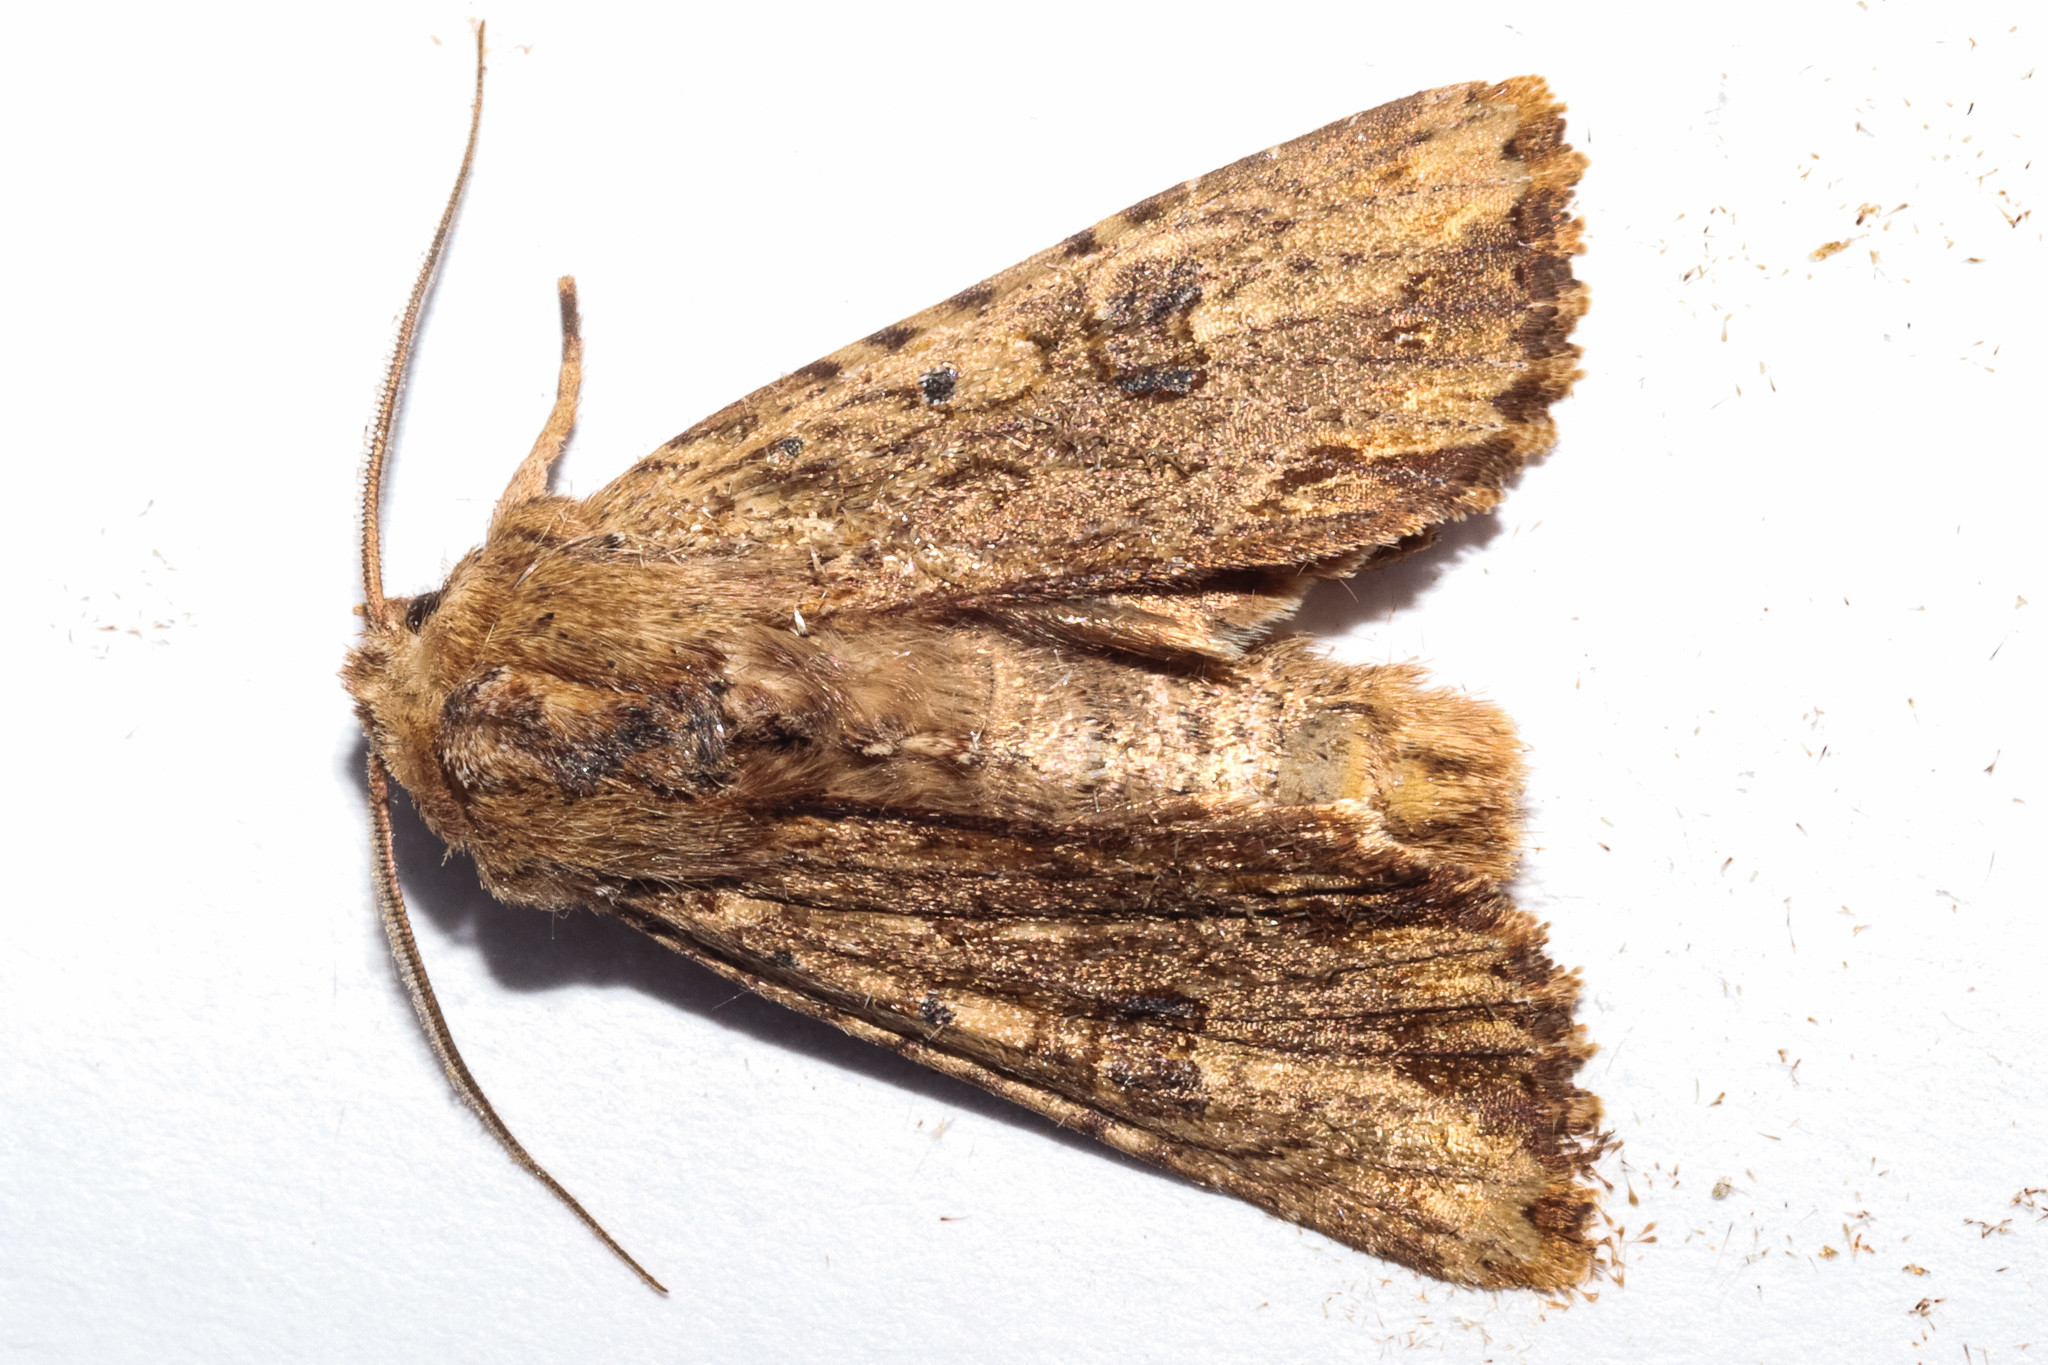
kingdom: Animalia
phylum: Arthropoda
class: Insecta
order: Lepidoptera
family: Noctuidae
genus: Ichneutica
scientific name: Ichneutica
